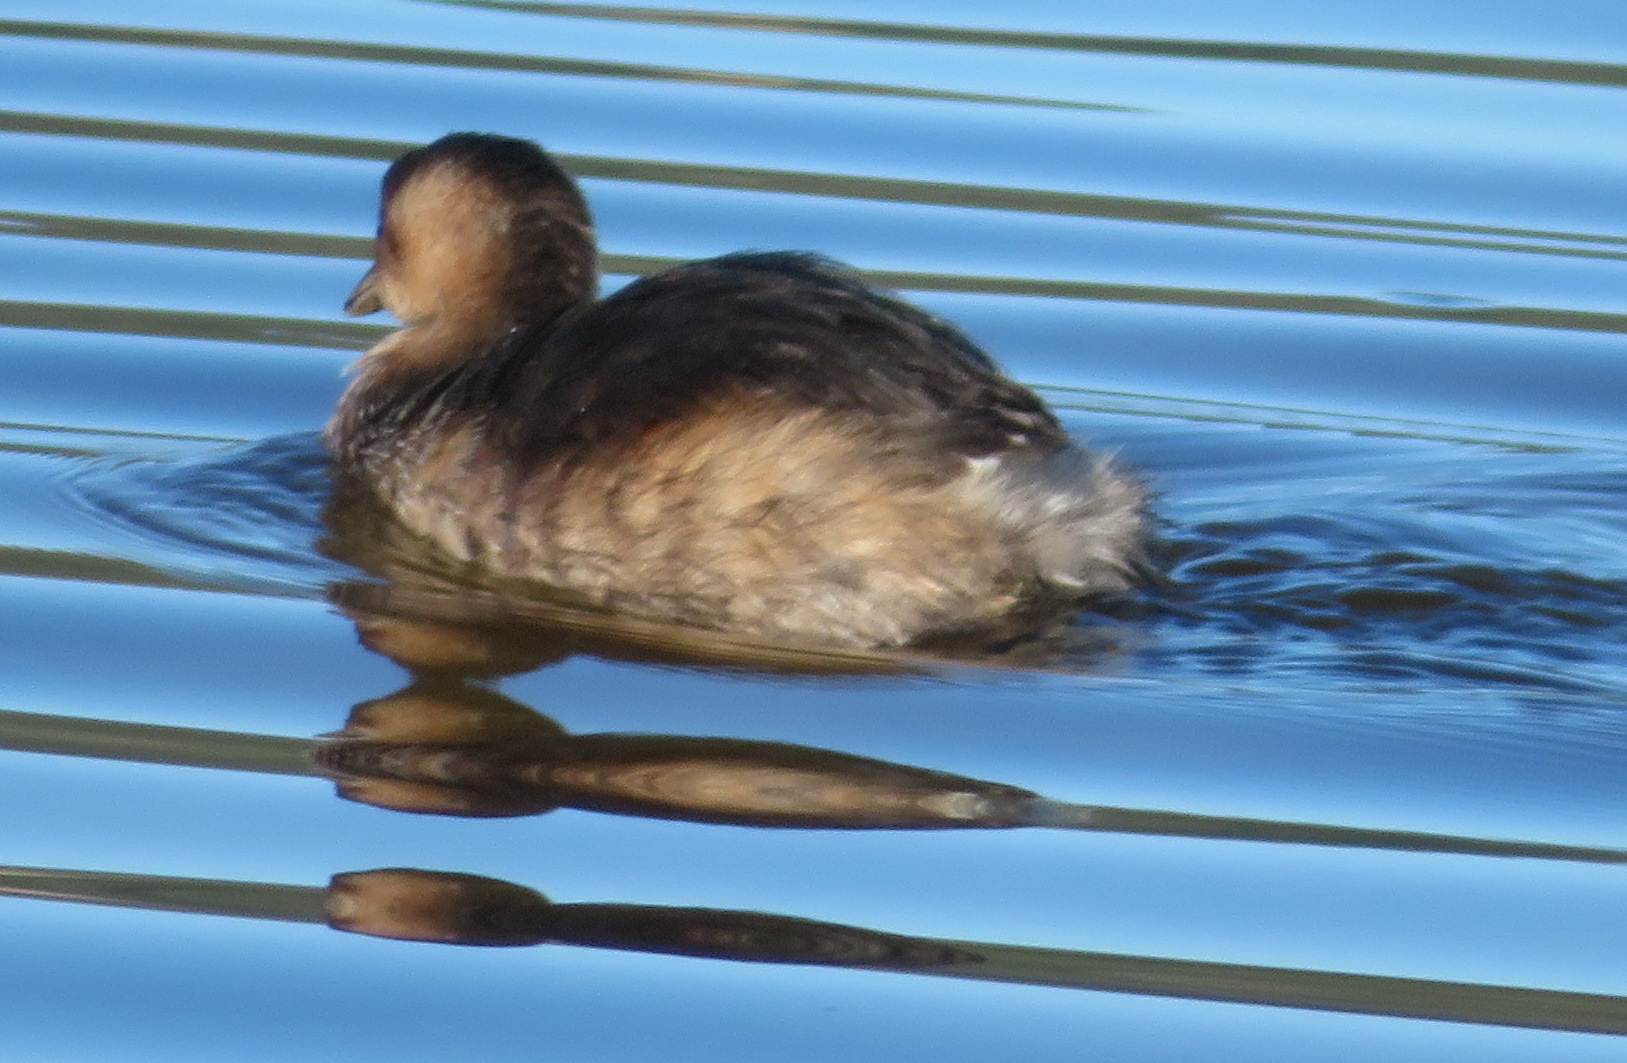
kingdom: Animalia
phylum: Chordata
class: Aves
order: Podicipediformes
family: Podicipedidae
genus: Tachybaptus
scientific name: Tachybaptus ruficollis
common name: Little grebe
